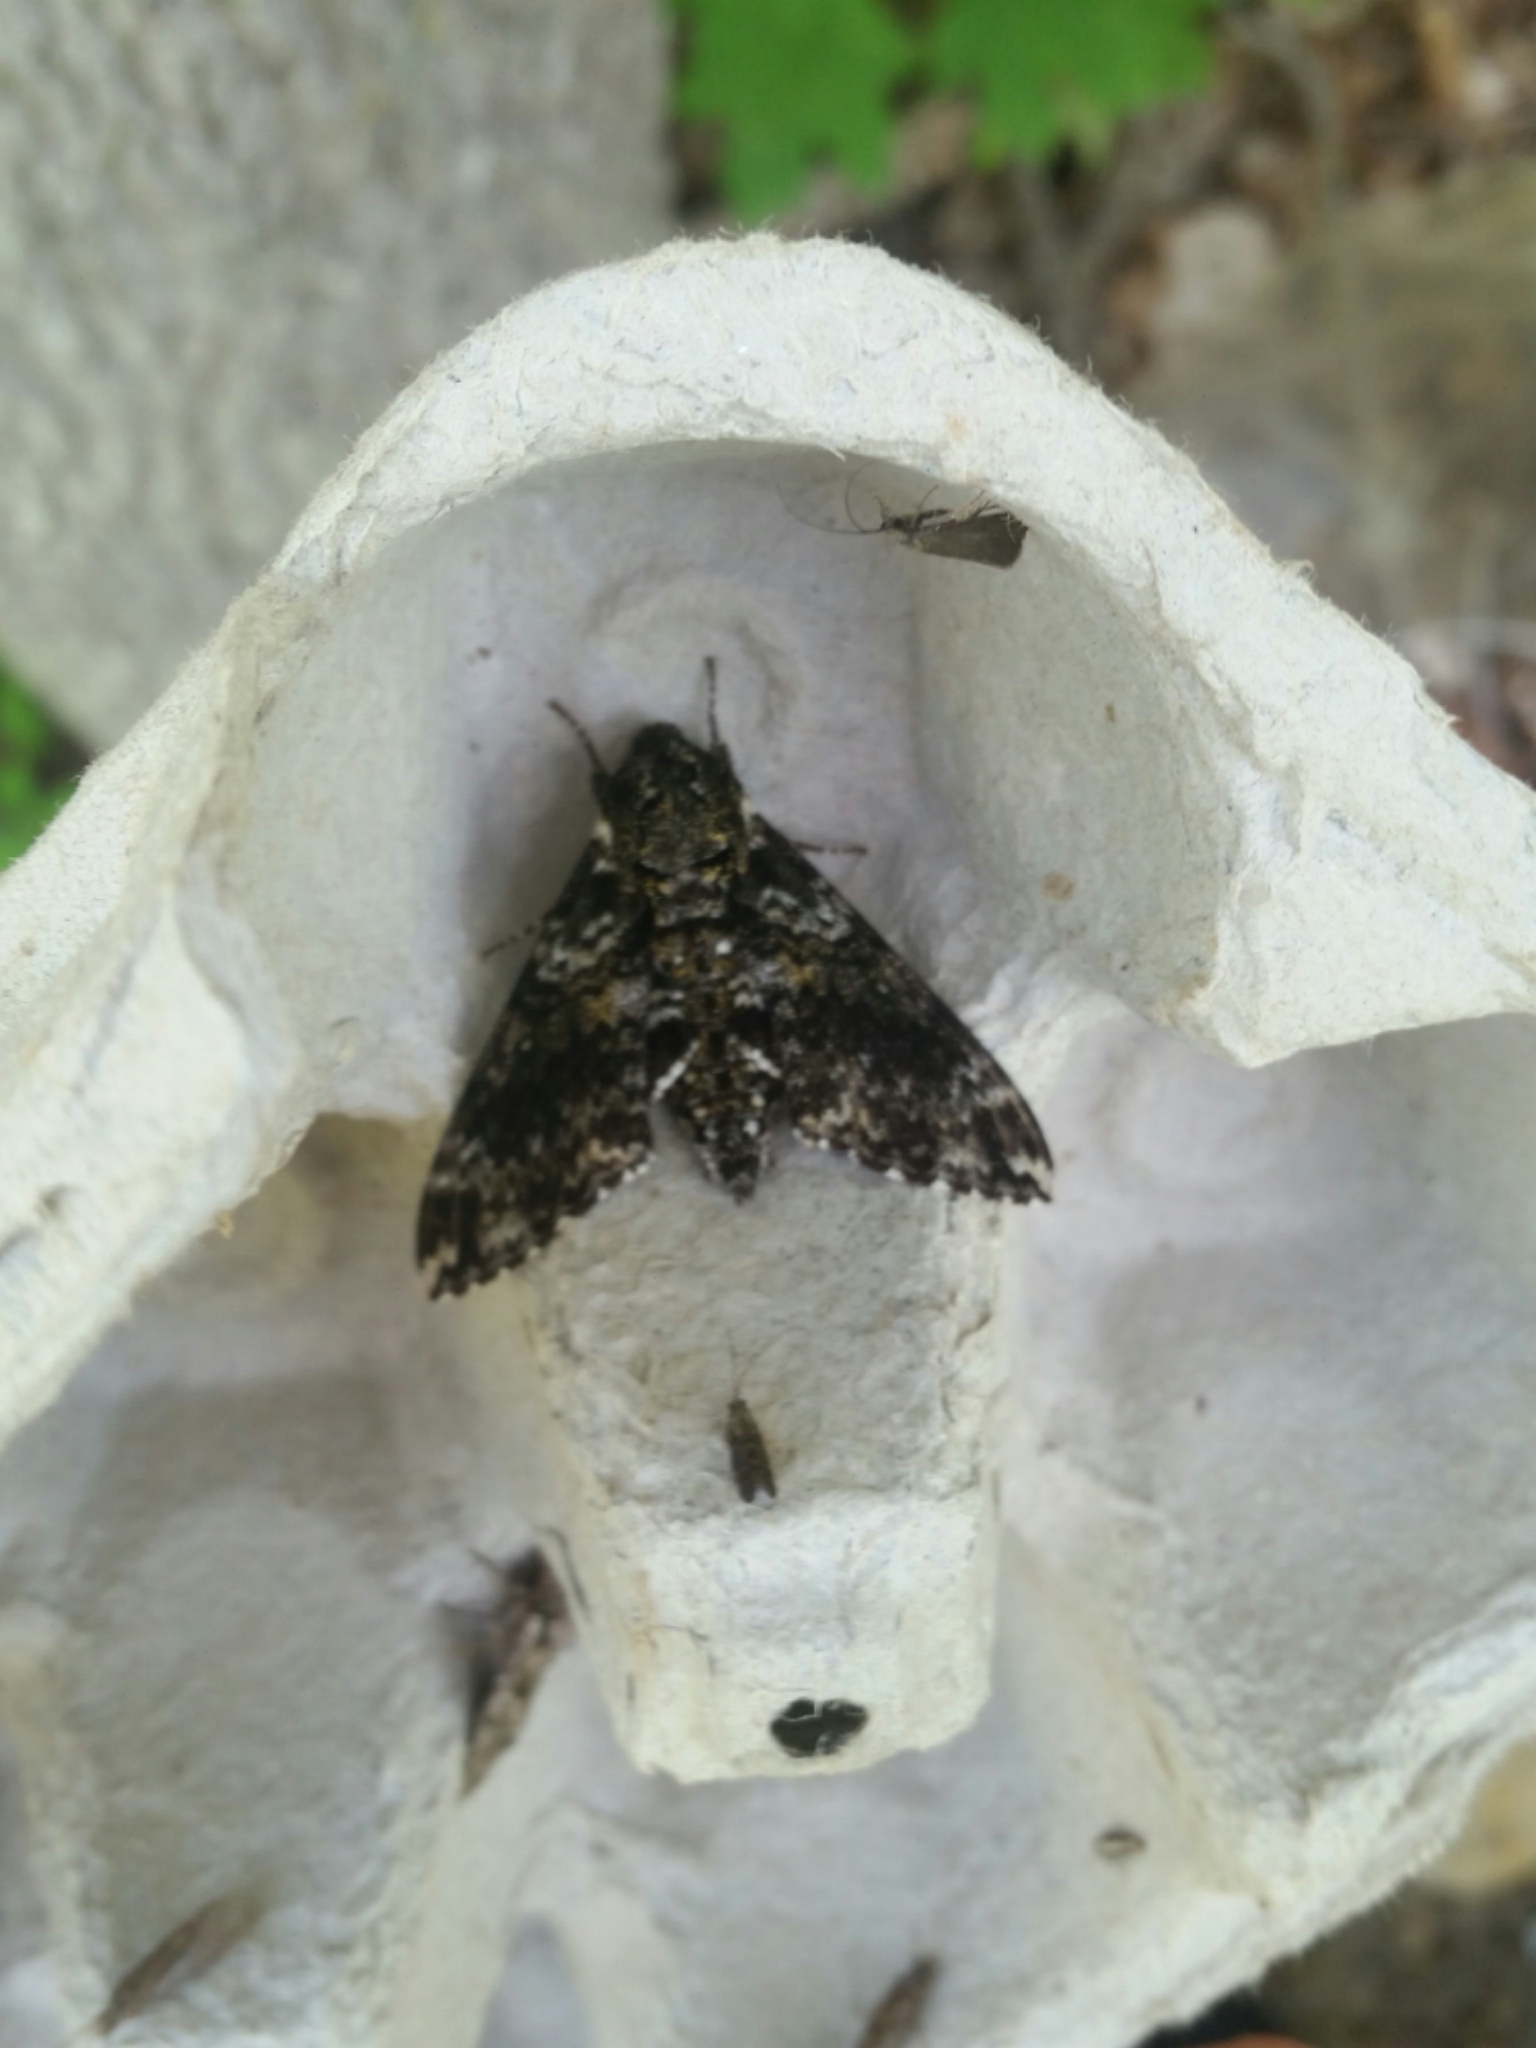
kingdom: Animalia
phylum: Arthropoda
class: Insecta
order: Lepidoptera
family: Sphingidae
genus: Dolba
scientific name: Dolba hyloeus
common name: Pawpaw sphinx
